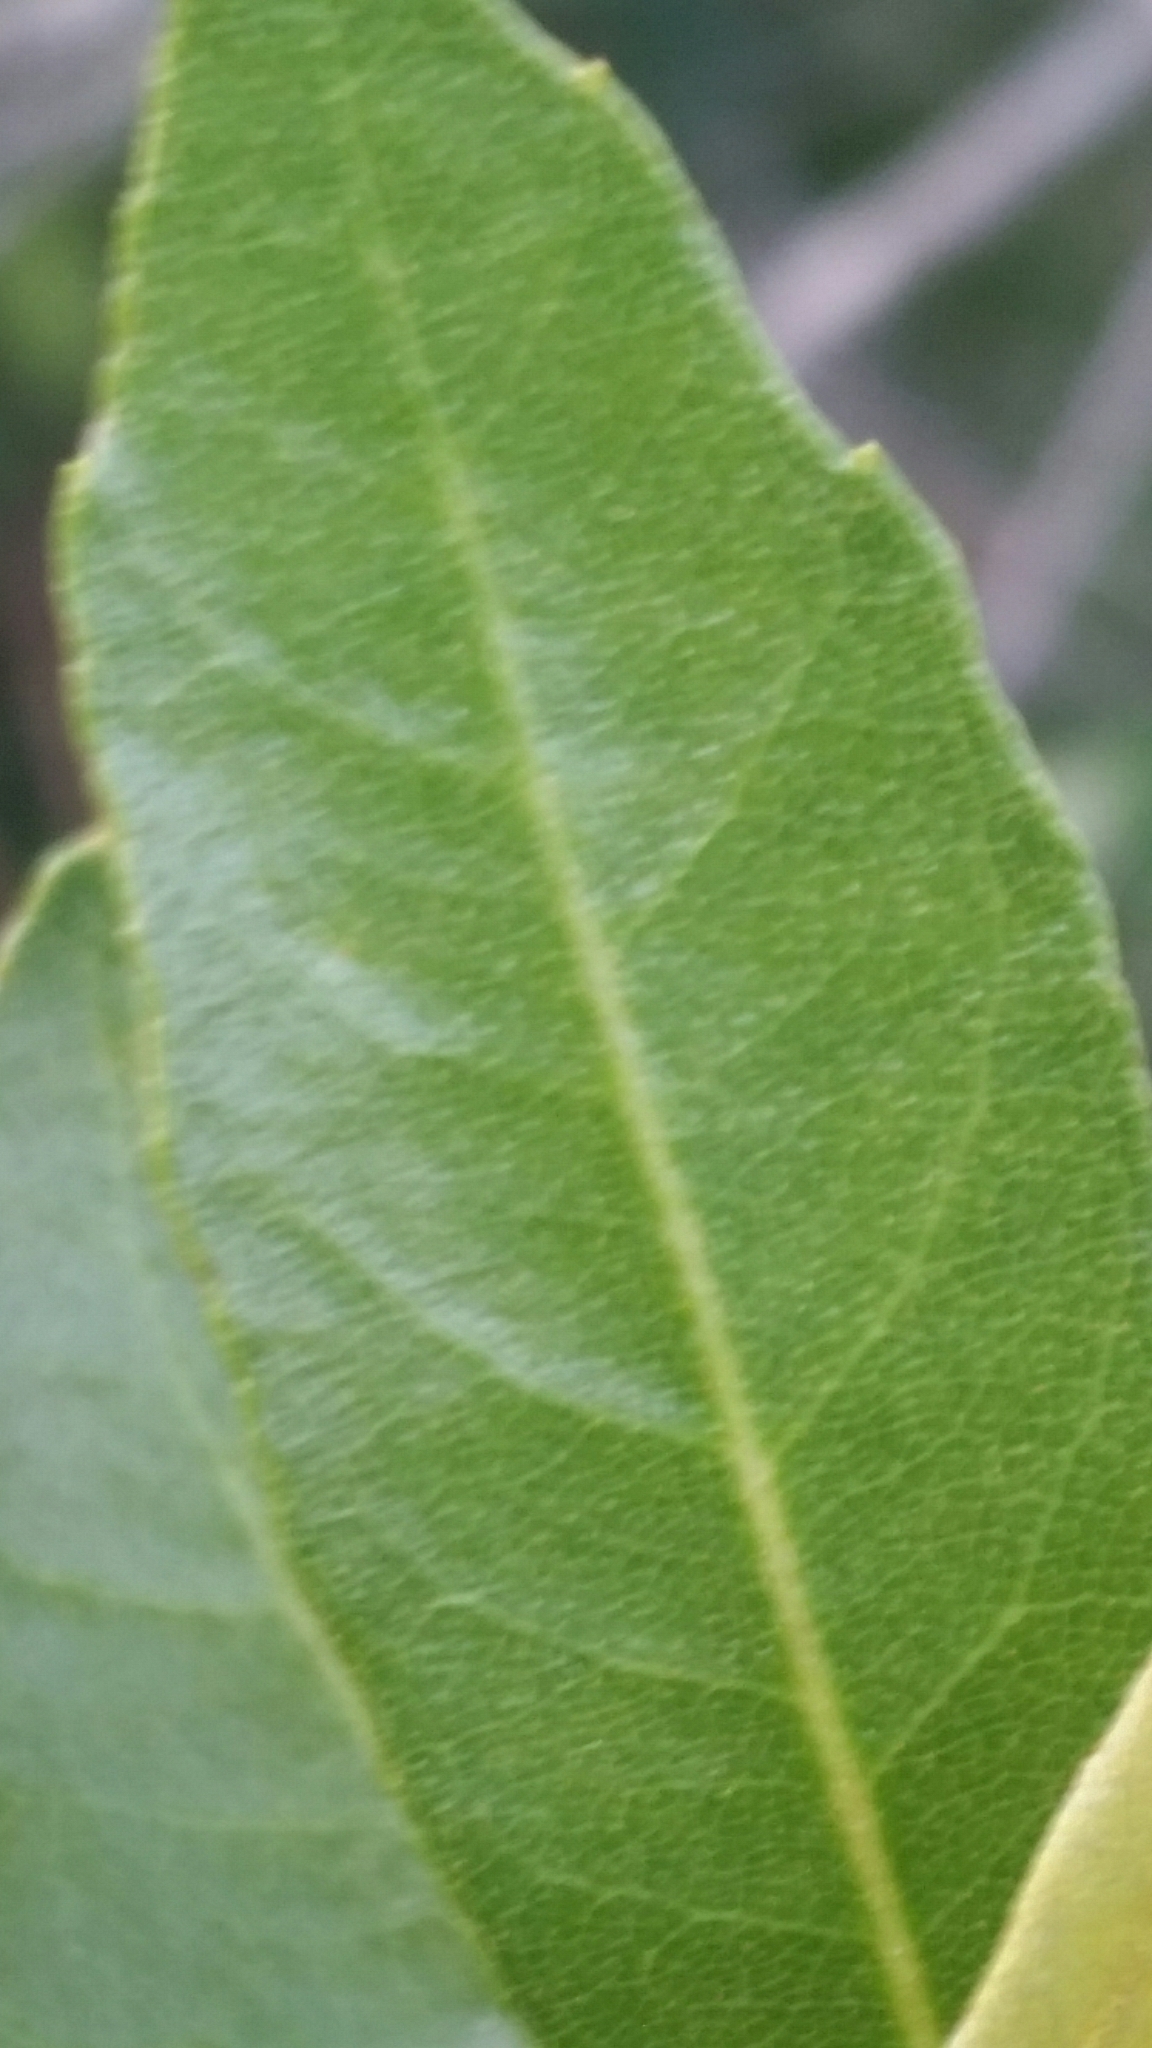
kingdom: Plantae
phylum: Tracheophyta
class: Magnoliopsida
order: Fagales
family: Myricaceae
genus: Morella
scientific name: Morella cerifera
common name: Wax myrtle
